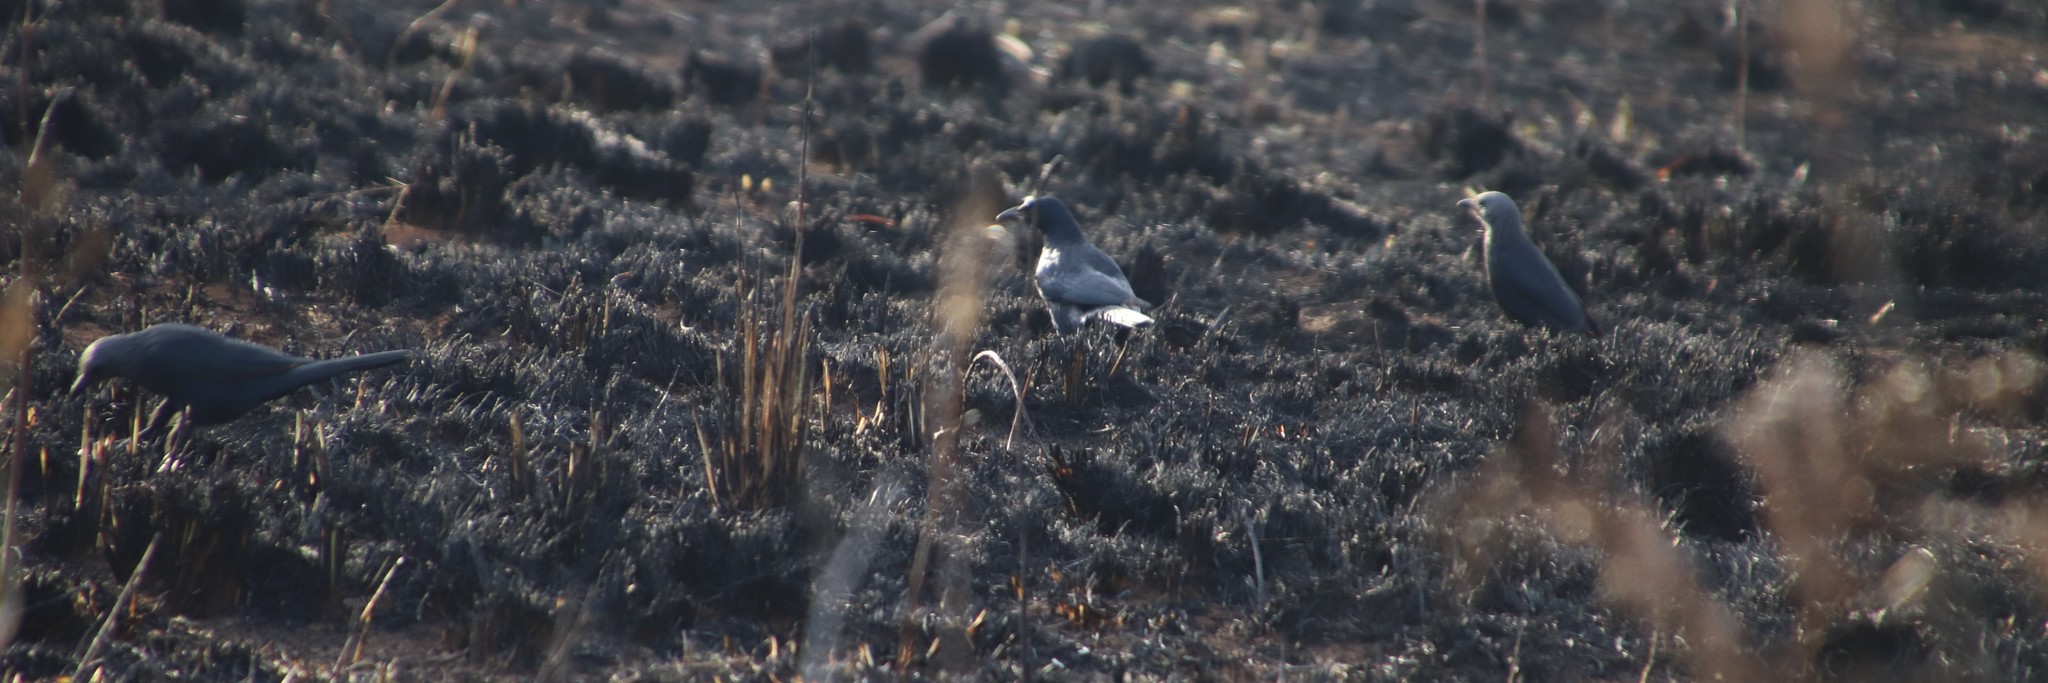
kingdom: Animalia
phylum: Chordata
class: Aves
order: Passeriformes
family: Sturnidae
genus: Onychognathus
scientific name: Onychognathus morio
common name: Red-winged starling
